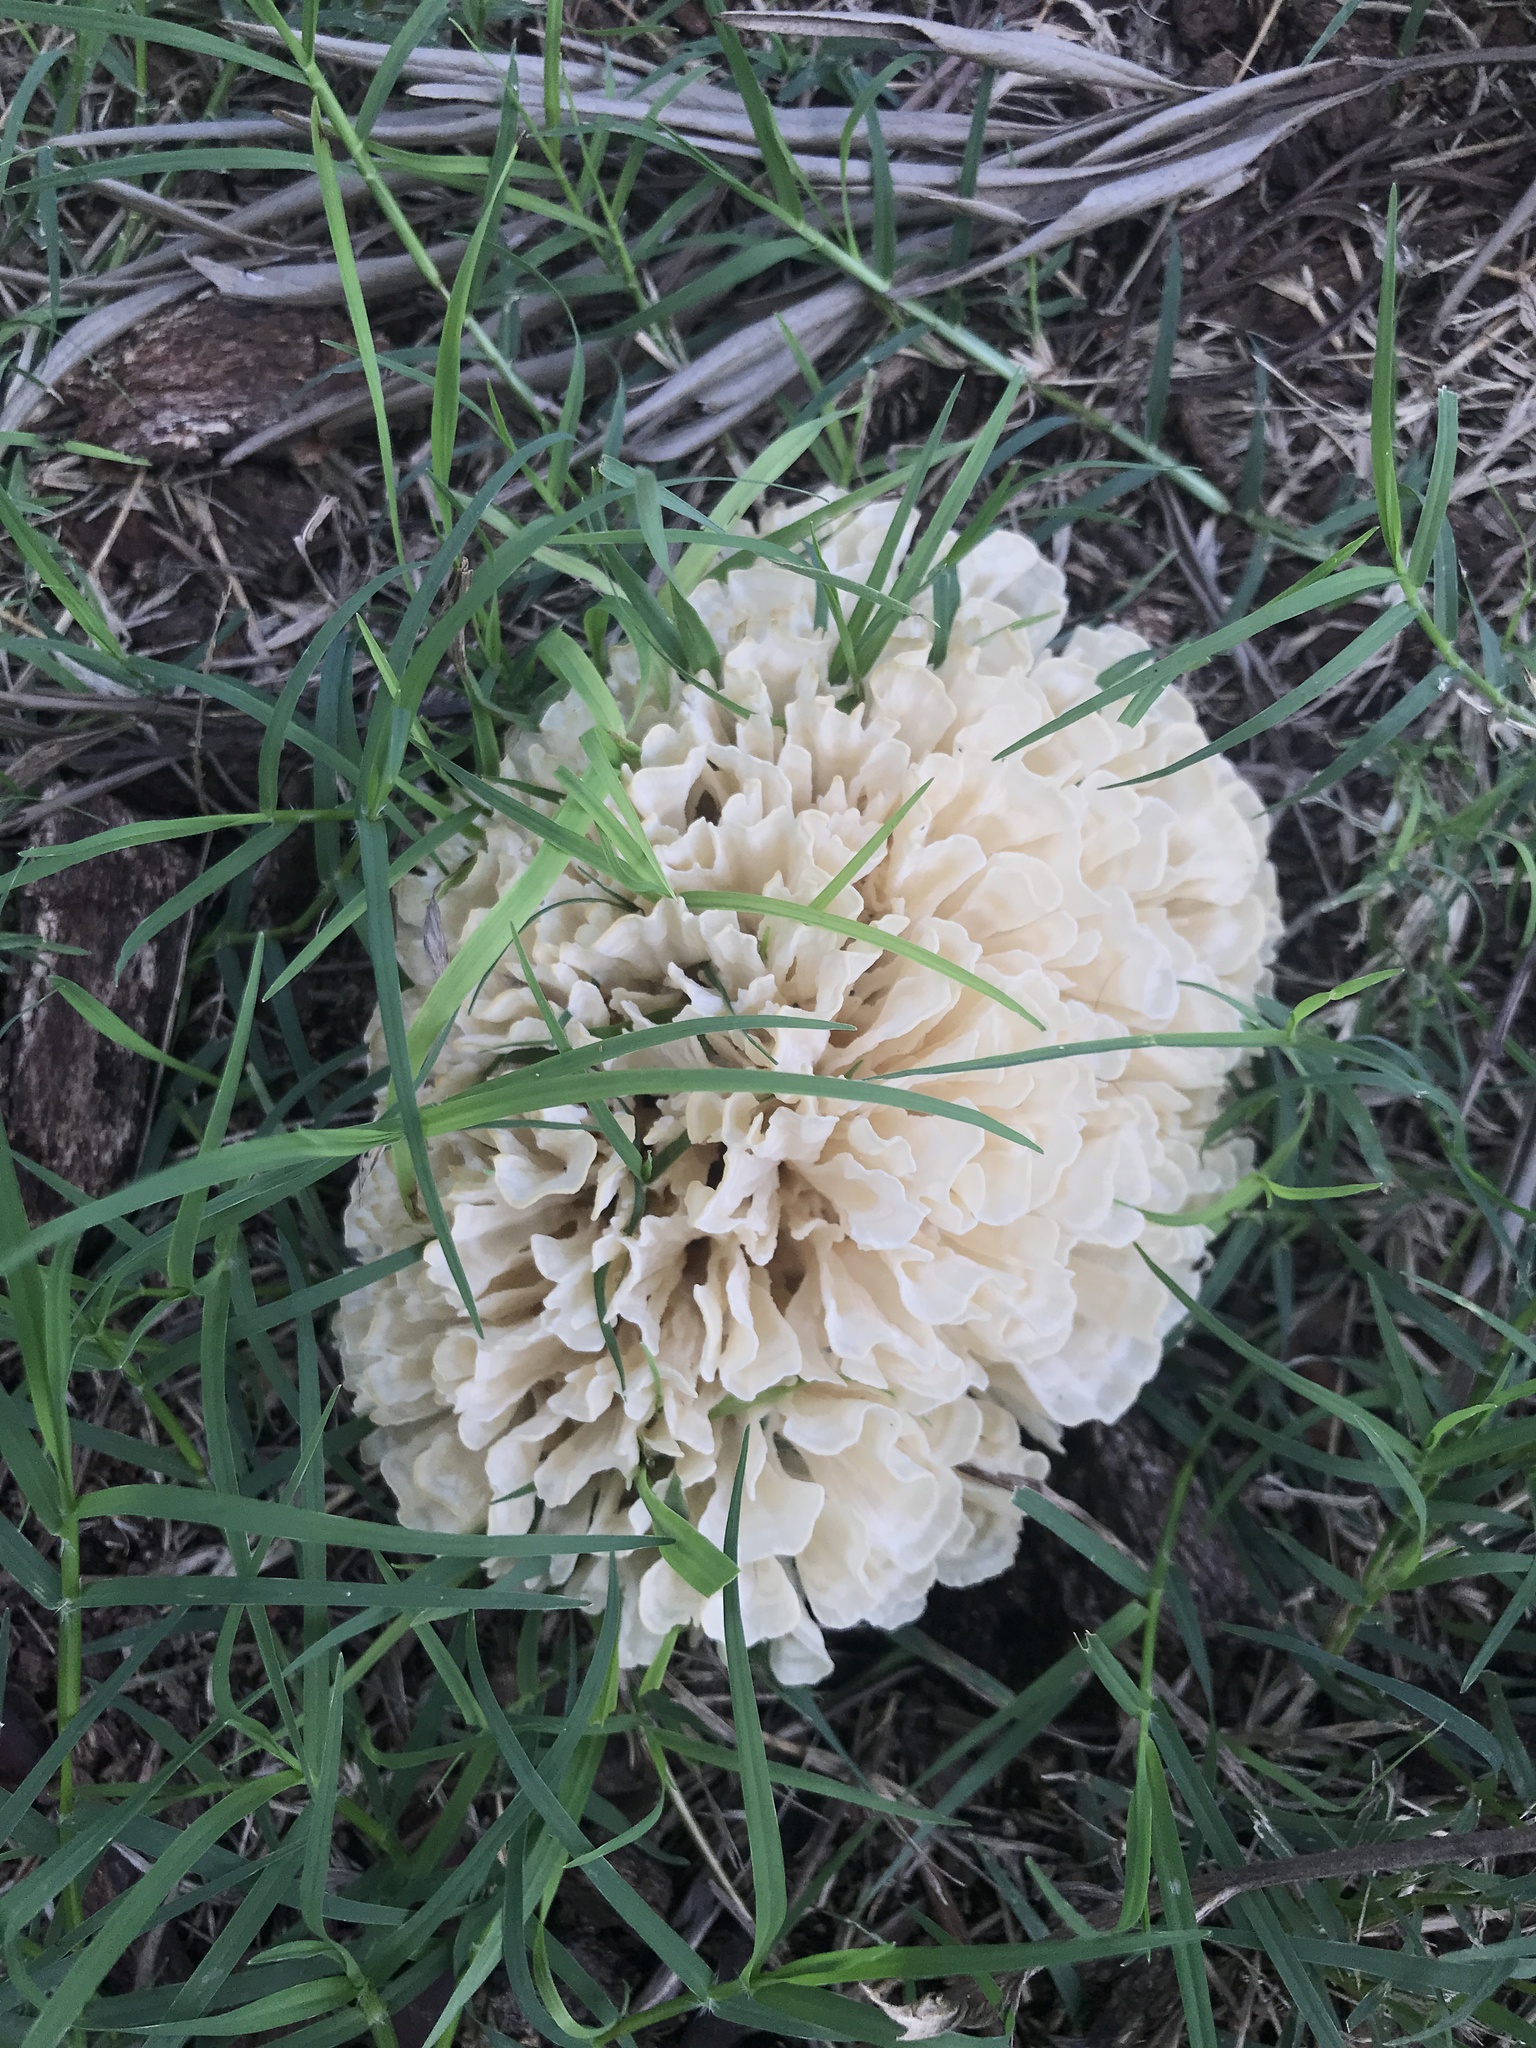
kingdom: Fungi
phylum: Basidiomycota
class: Agaricomycetes
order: Polyporales
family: Irpicaceae
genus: Irpex
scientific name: Irpex rosettiformis
